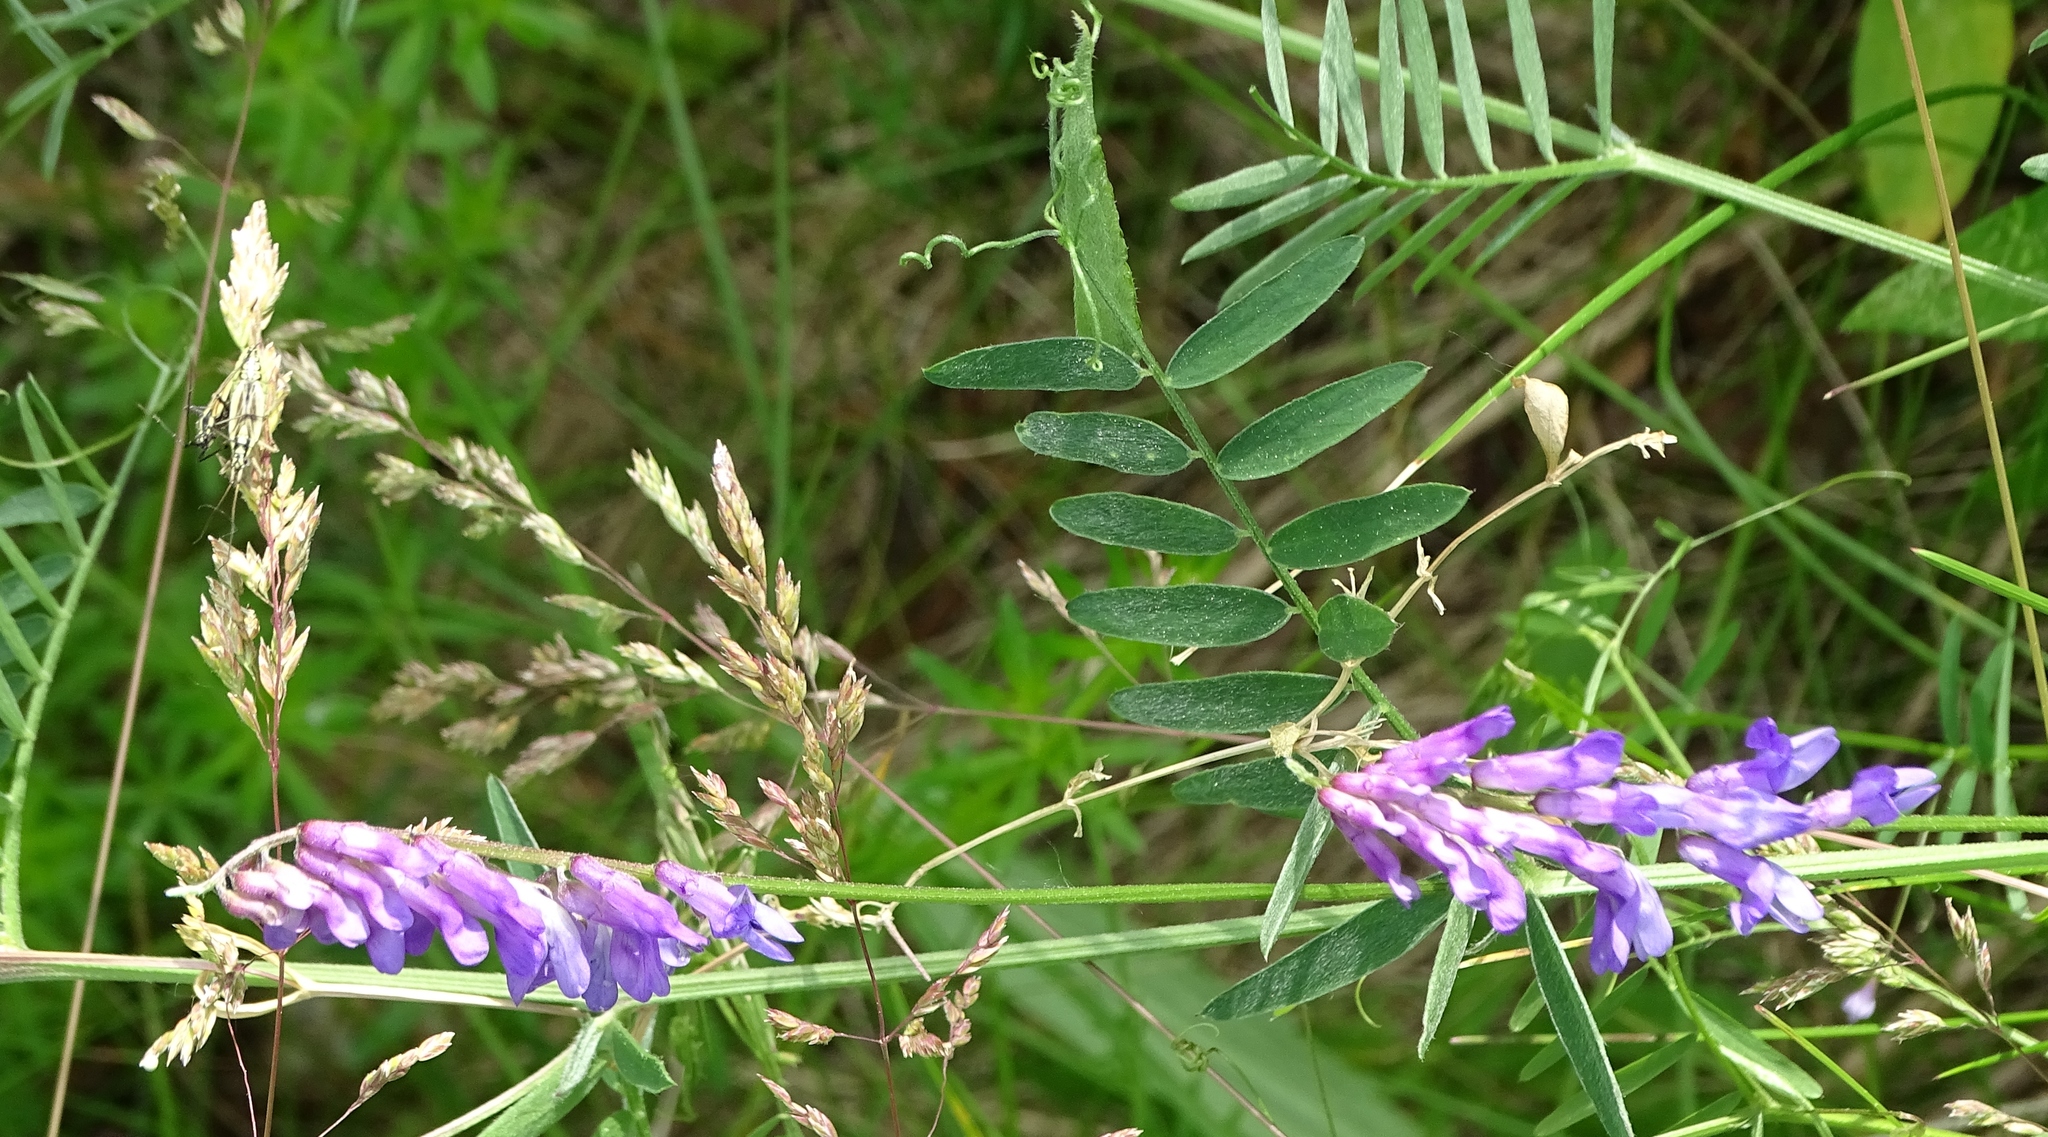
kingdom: Plantae
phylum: Tracheophyta
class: Magnoliopsida
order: Fabales
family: Fabaceae
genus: Vicia
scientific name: Vicia cracca
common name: Bird vetch
